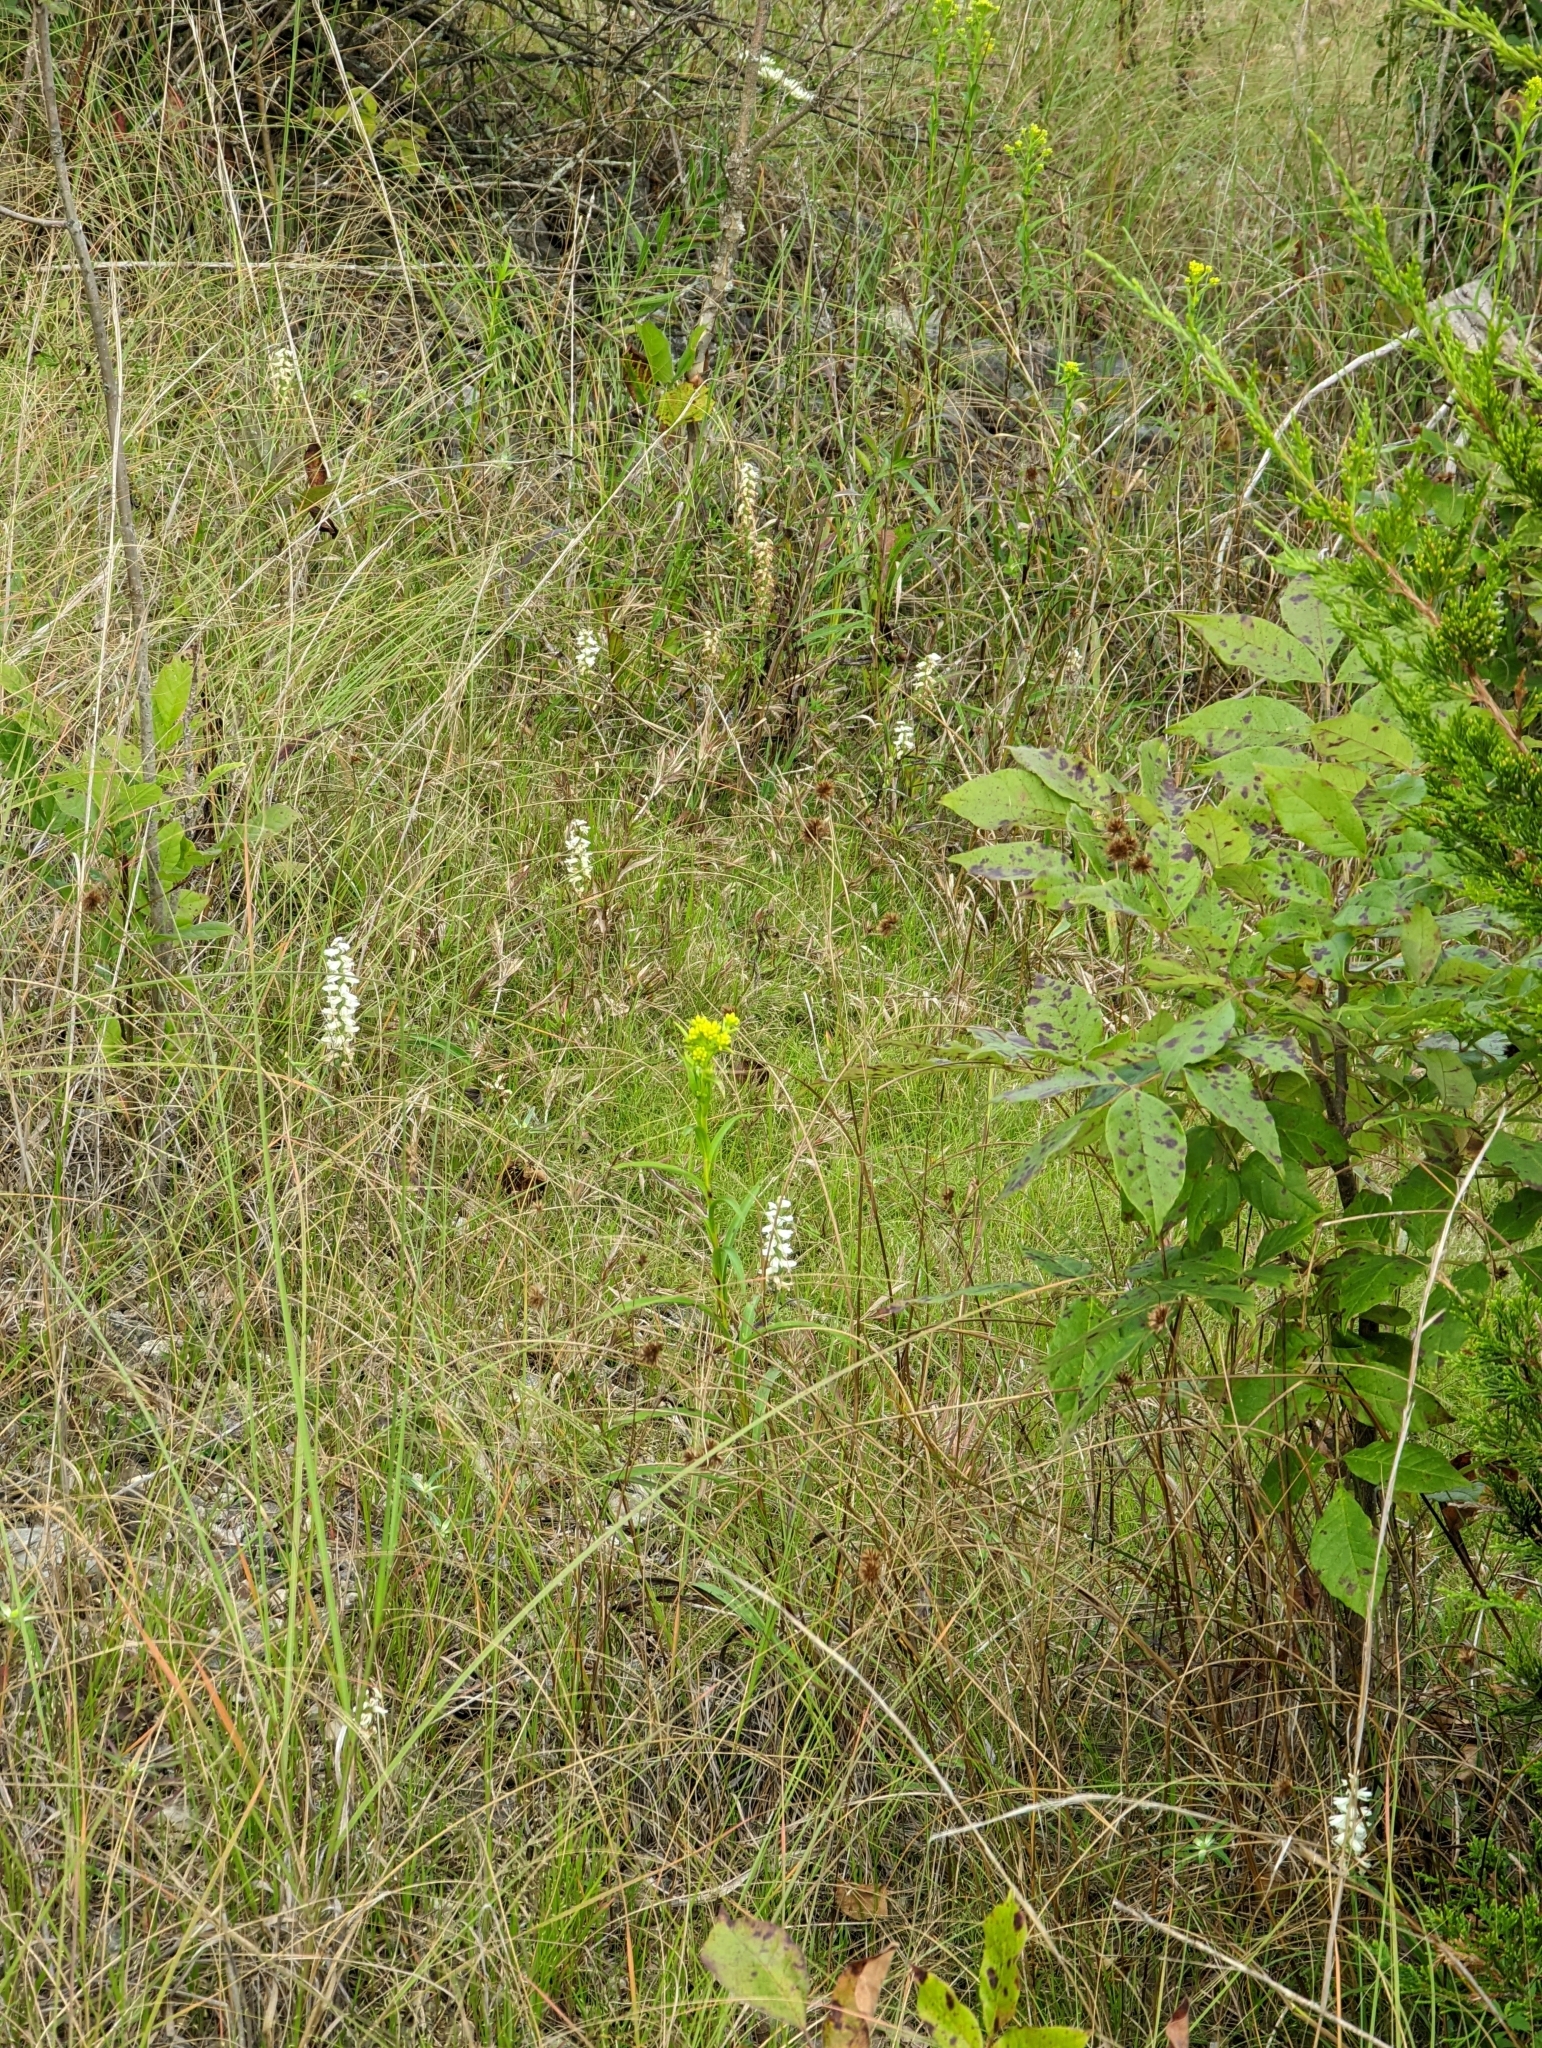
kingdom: Plantae
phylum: Tracheophyta
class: Liliopsida
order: Asparagales
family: Orchidaceae
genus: Spiranthes
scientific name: Spiranthes magnicamporum
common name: Great plains ladies'-tresses
